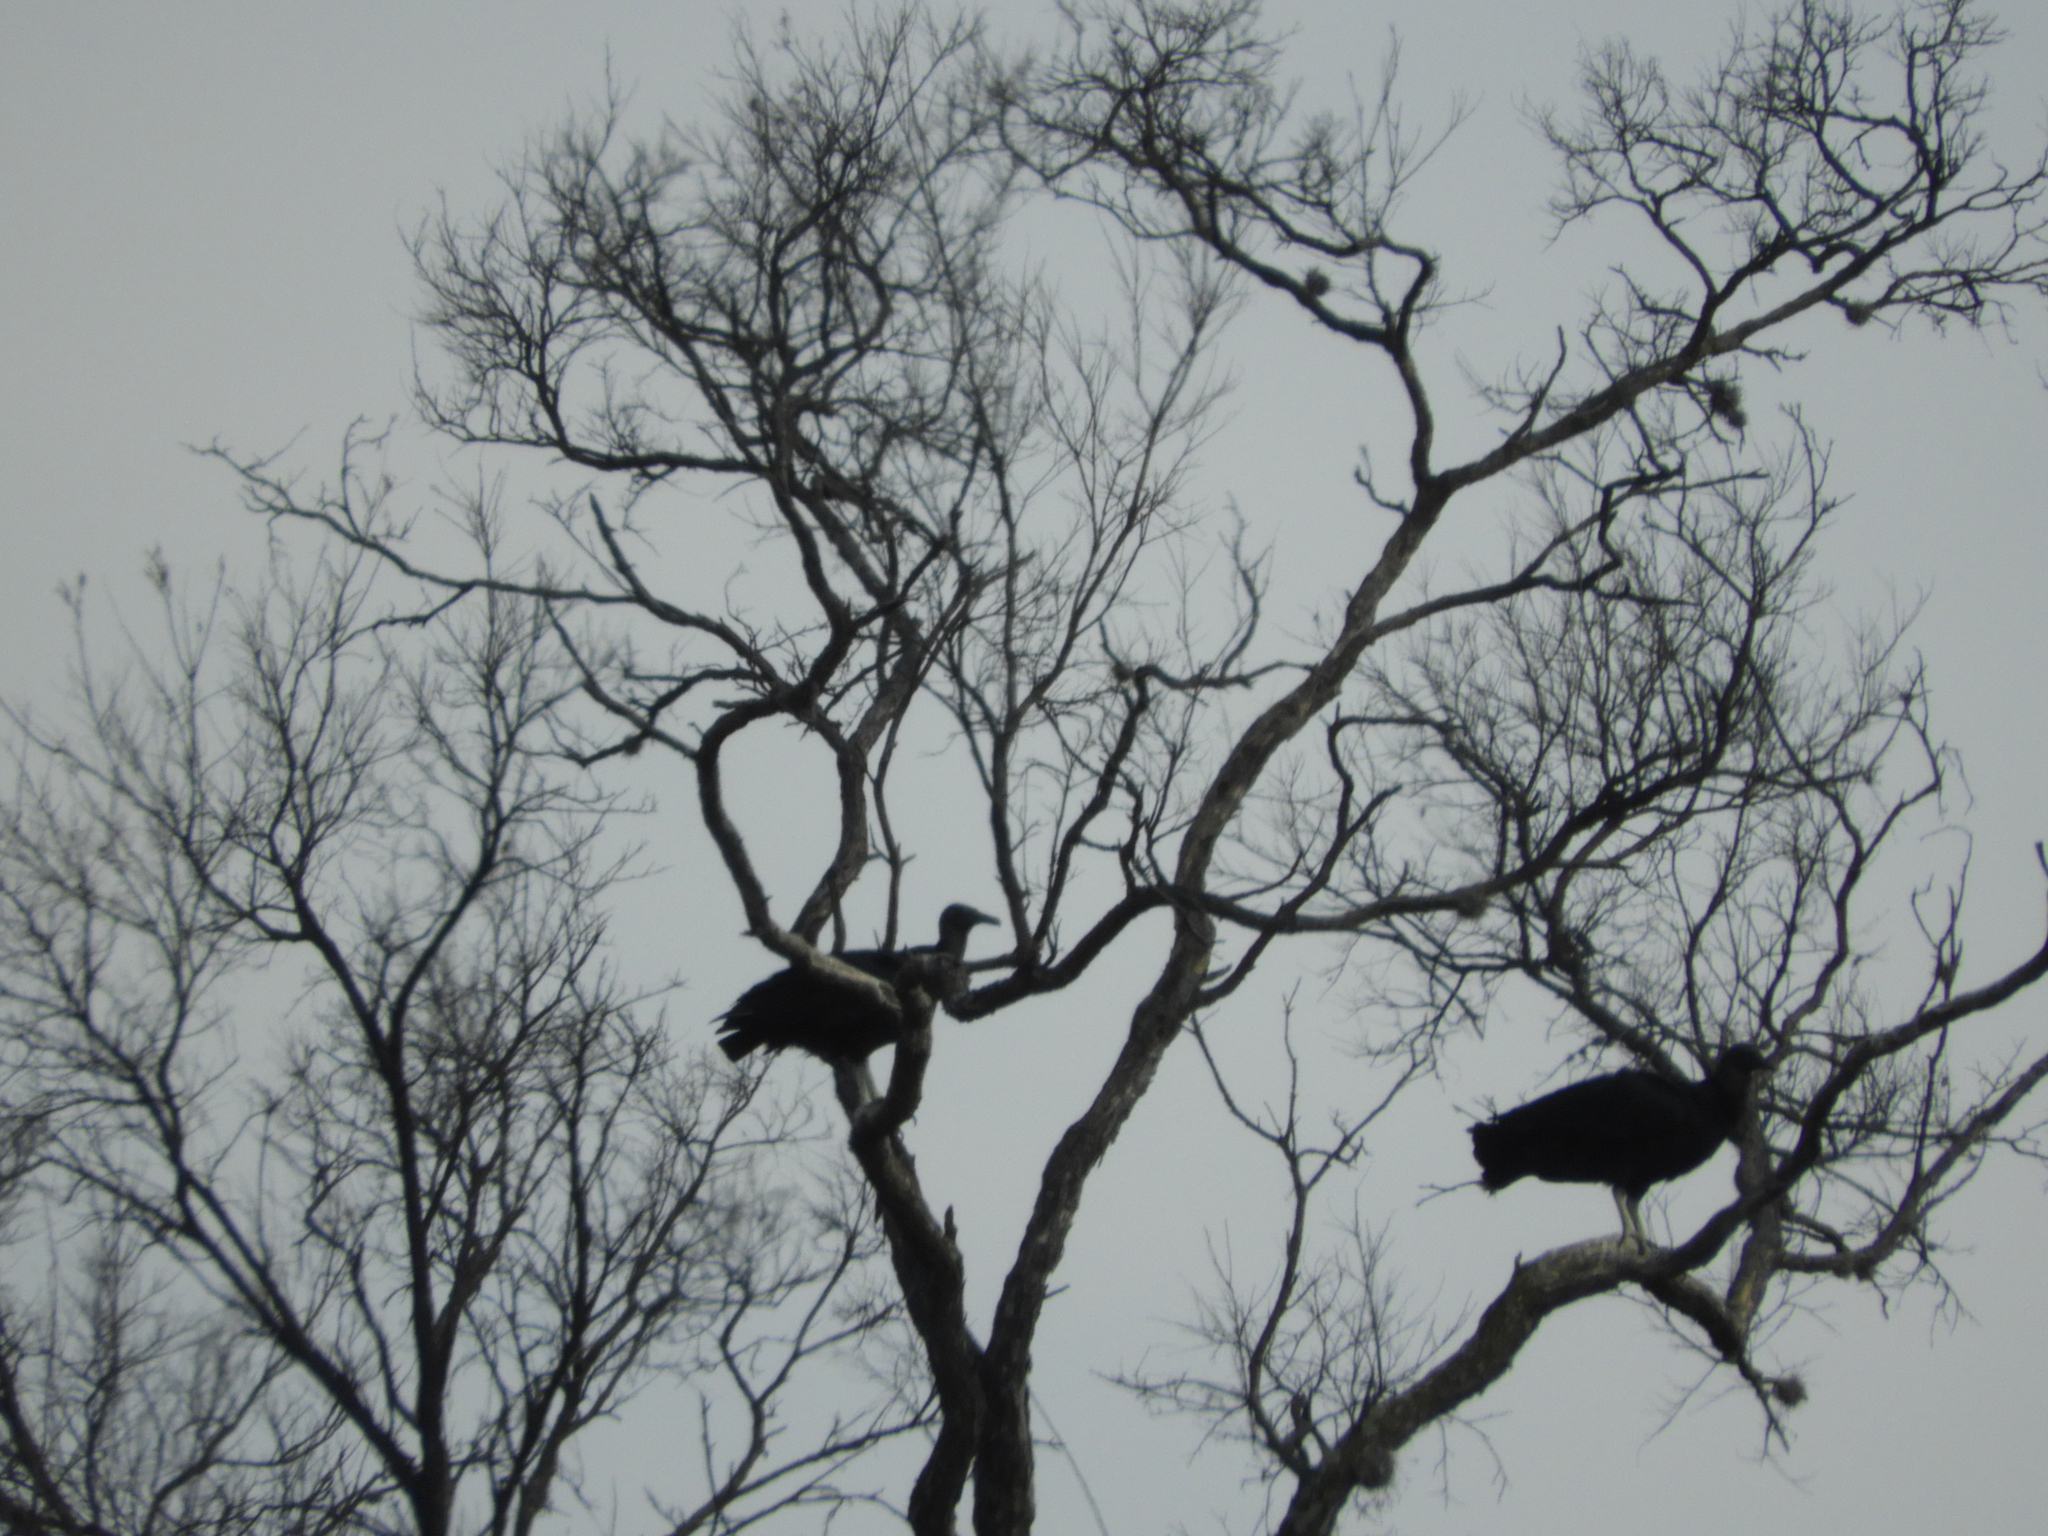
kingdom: Animalia
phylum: Chordata
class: Aves
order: Accipitriformes
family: Cathartidae
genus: Coragyps
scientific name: Coragyps atratus
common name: Black vulture
